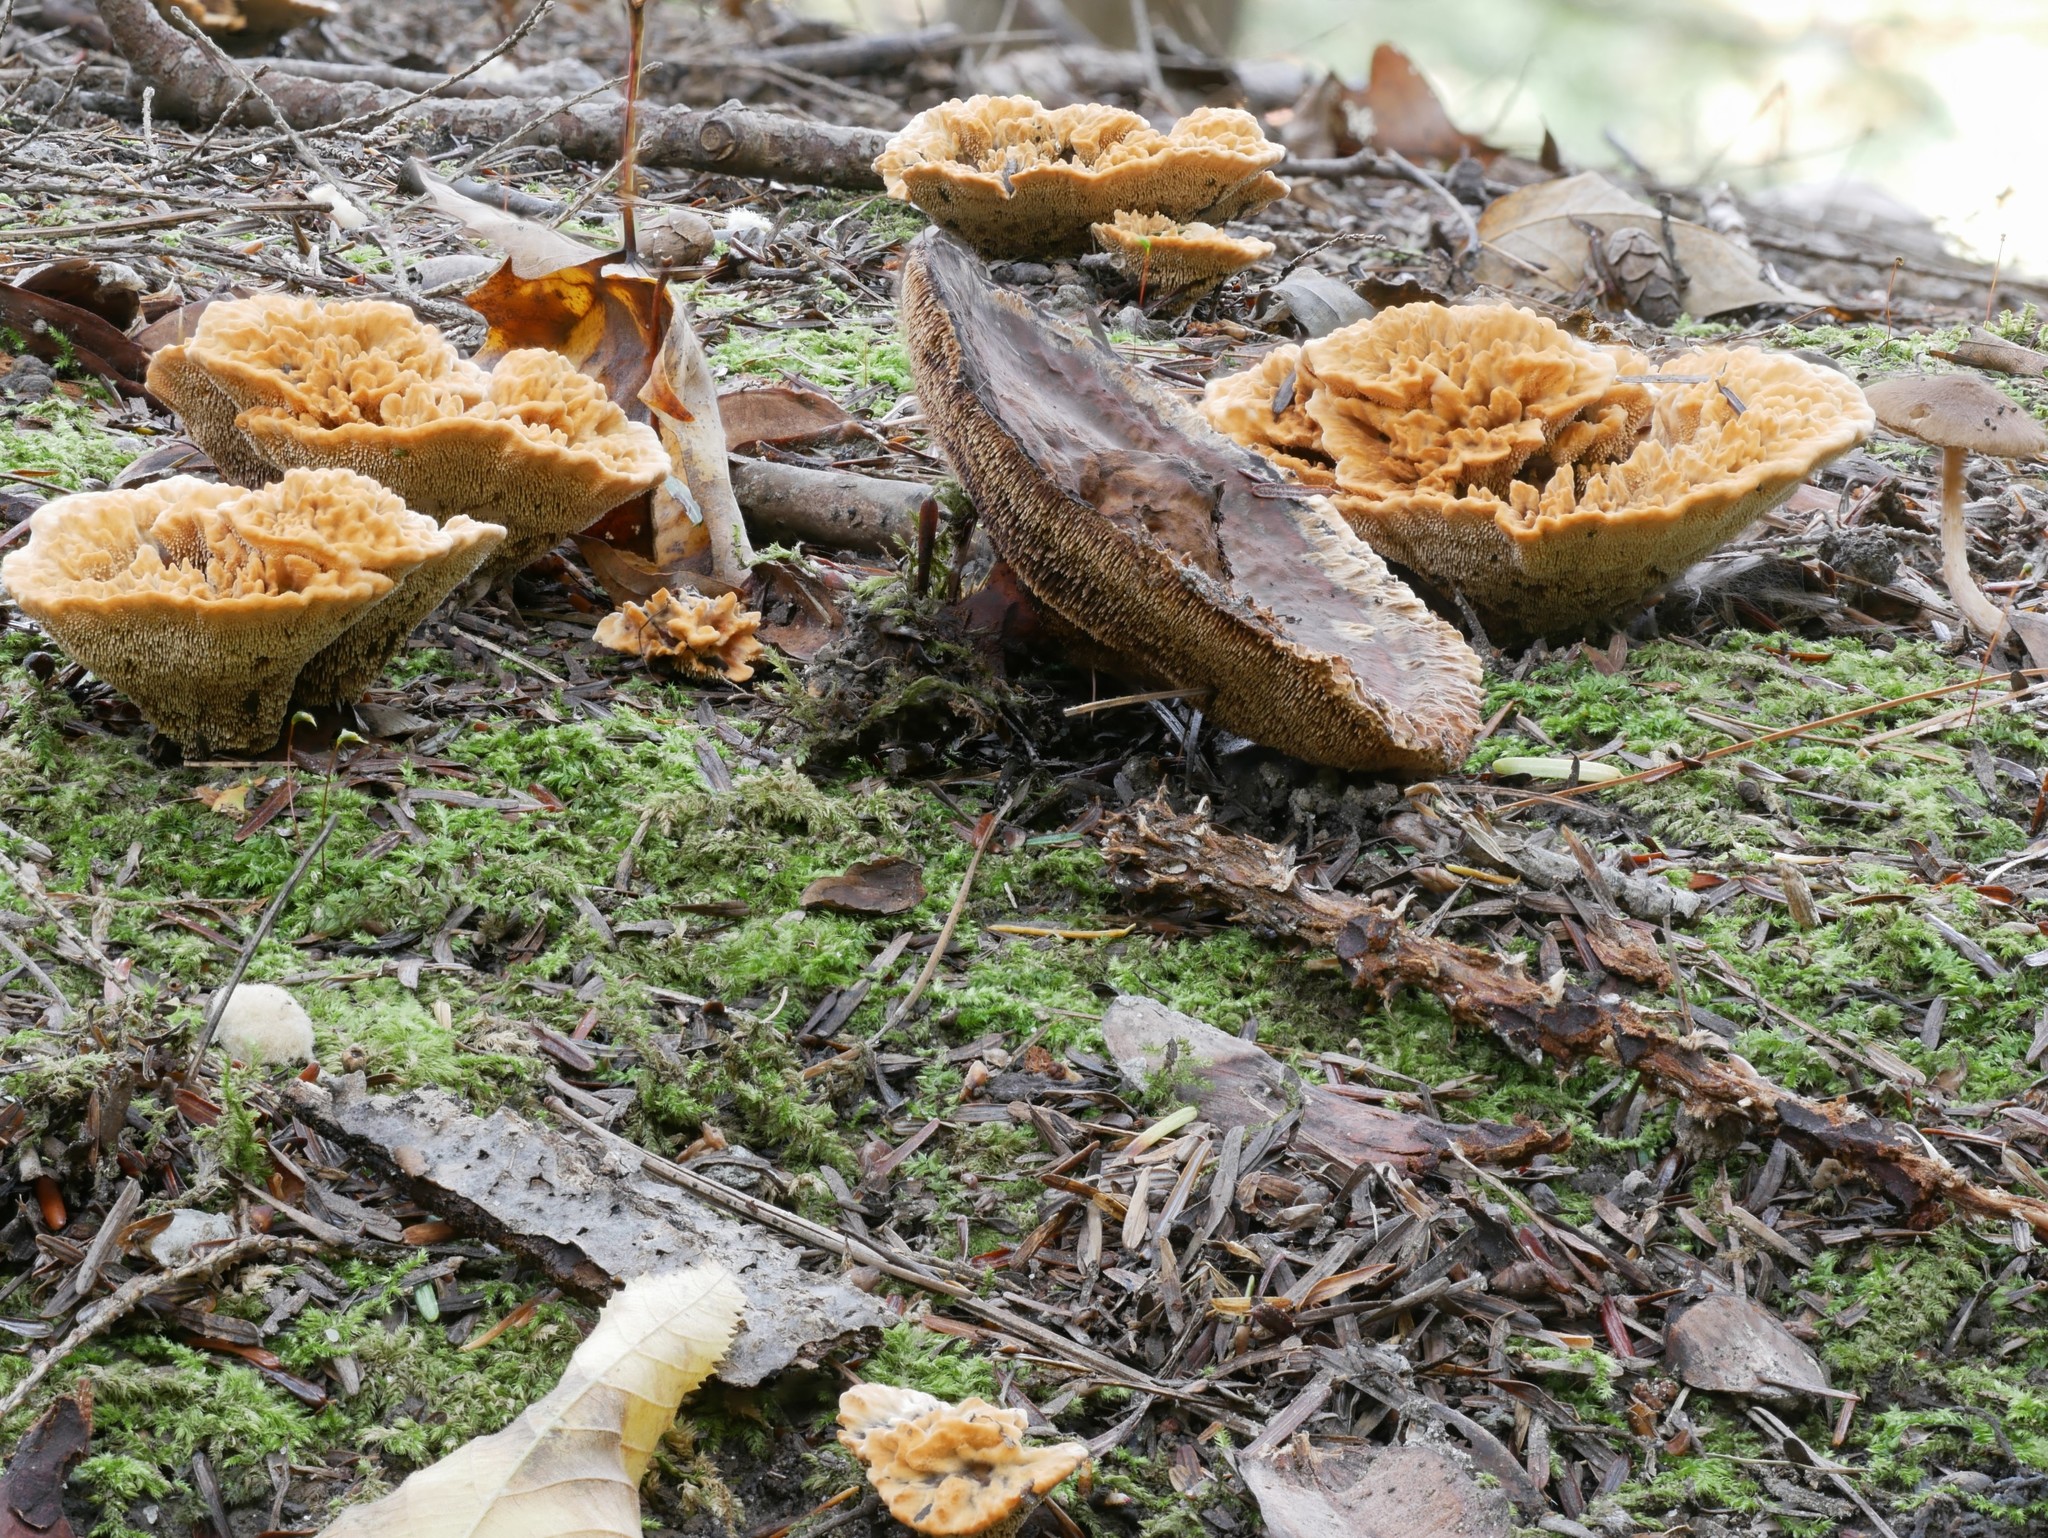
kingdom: Fungi
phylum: Basidiomycota
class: Agaricomycetes
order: Thelephorales
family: Bankeraceae
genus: Hydnellum
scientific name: Hydnellum aurantiacum
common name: Orange tooth
